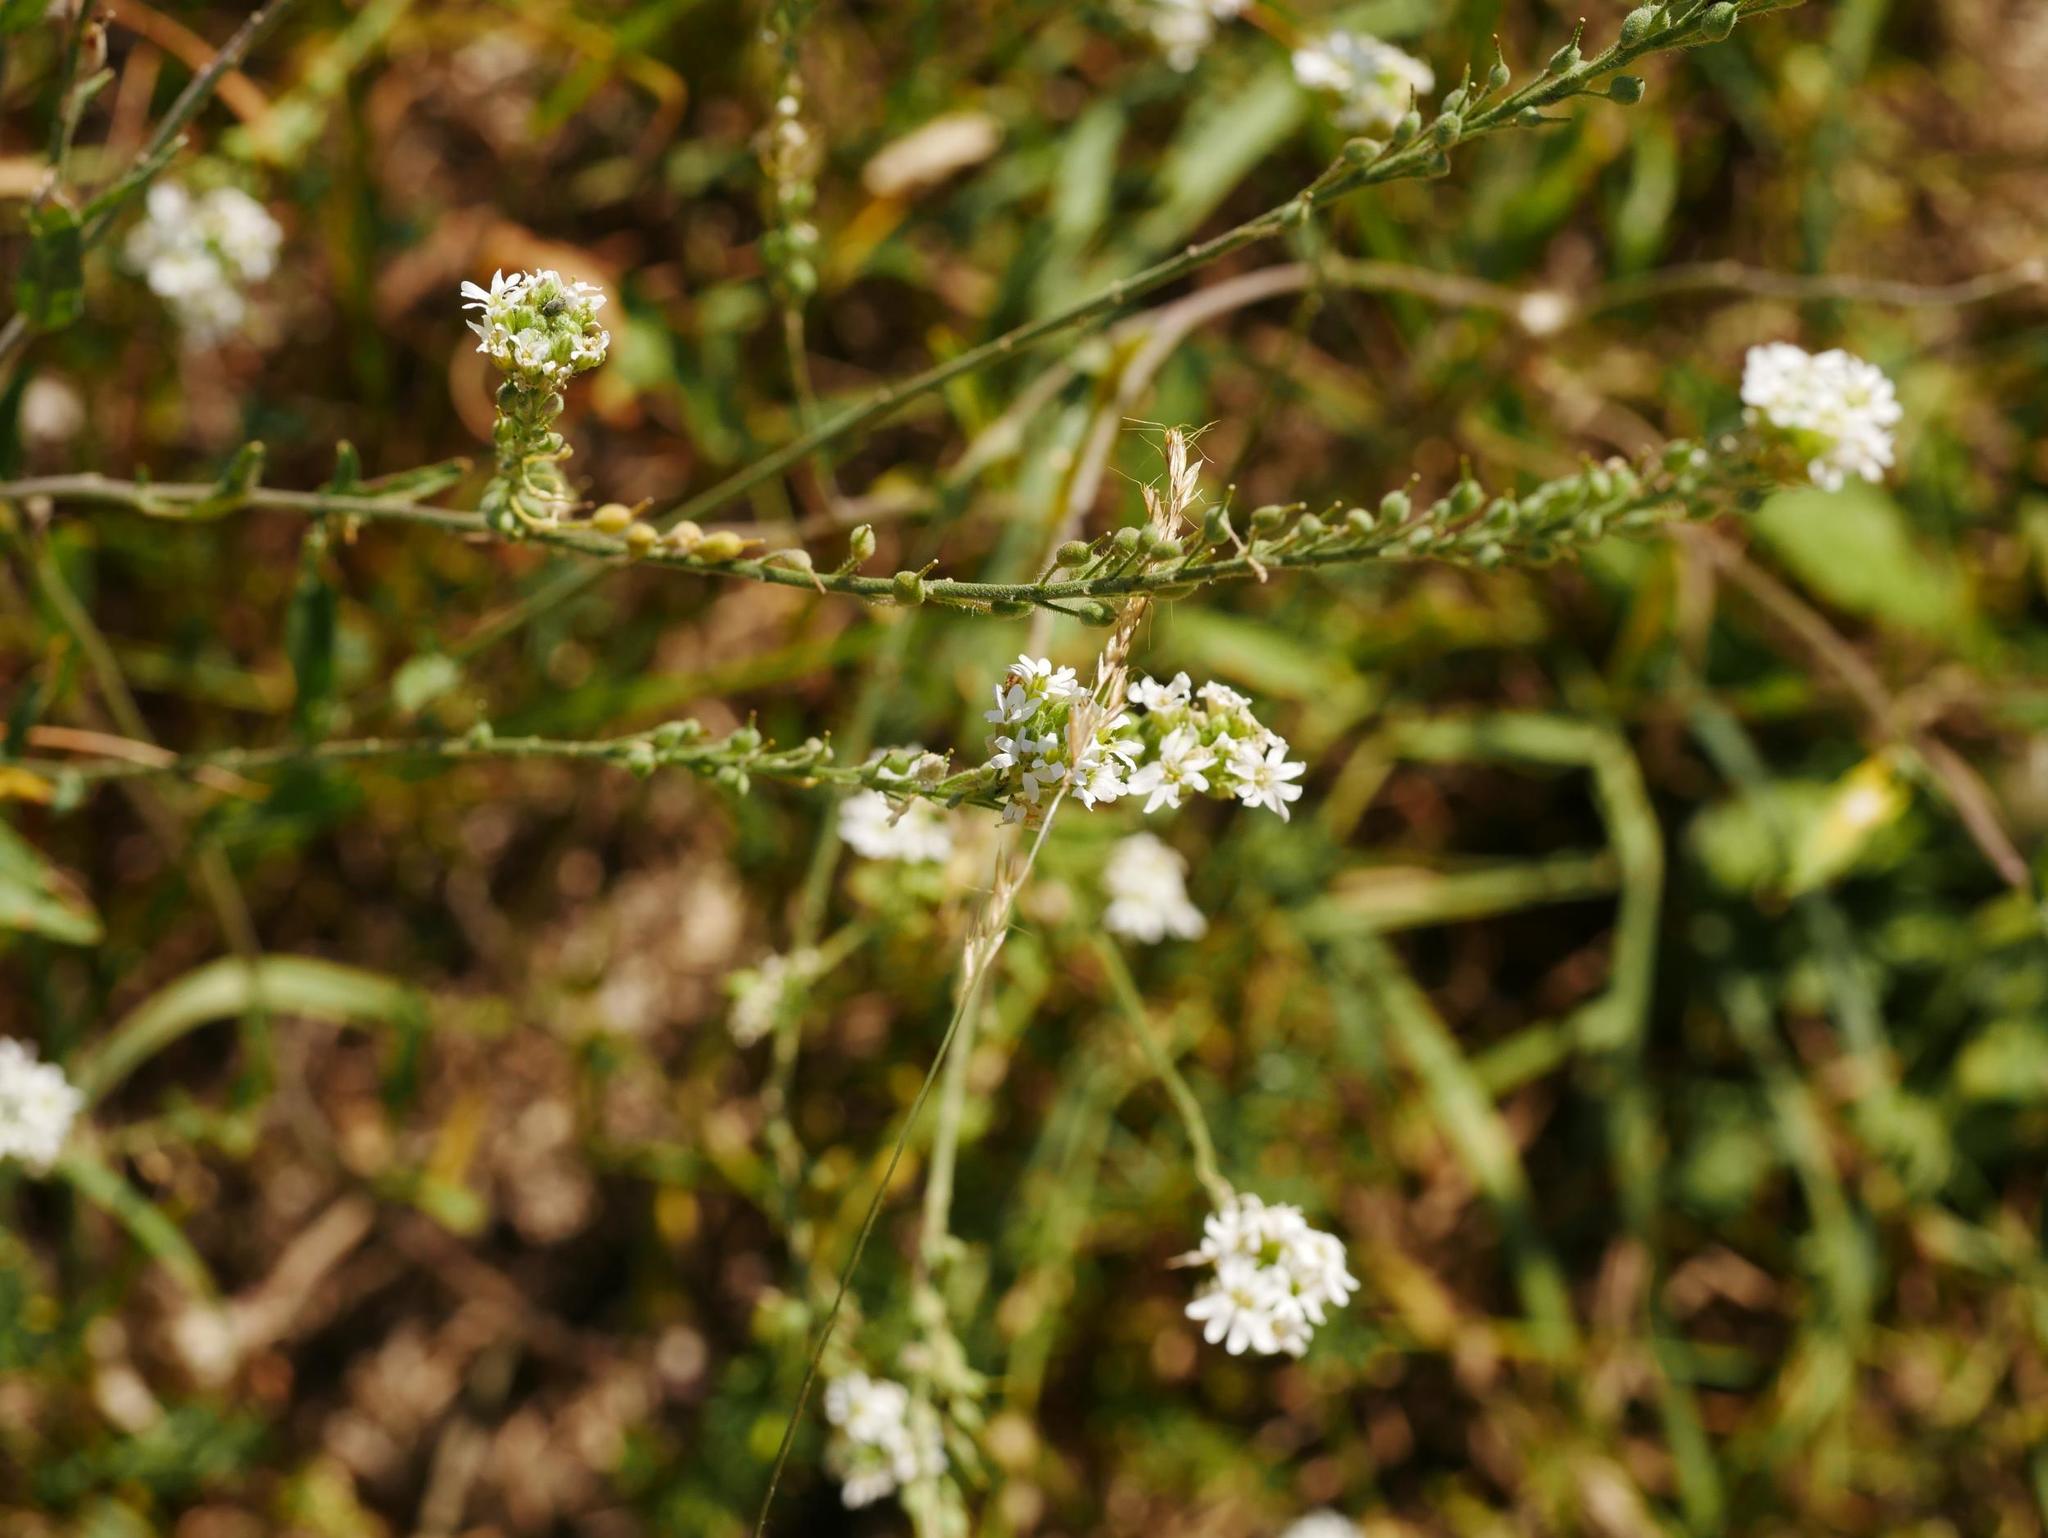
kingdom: Plantae
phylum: Tracheophyta
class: Magnoliopsida
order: Brassicales
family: Brassicaceae
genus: Berteroa
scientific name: Berteroa incana
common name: Hoary alison
